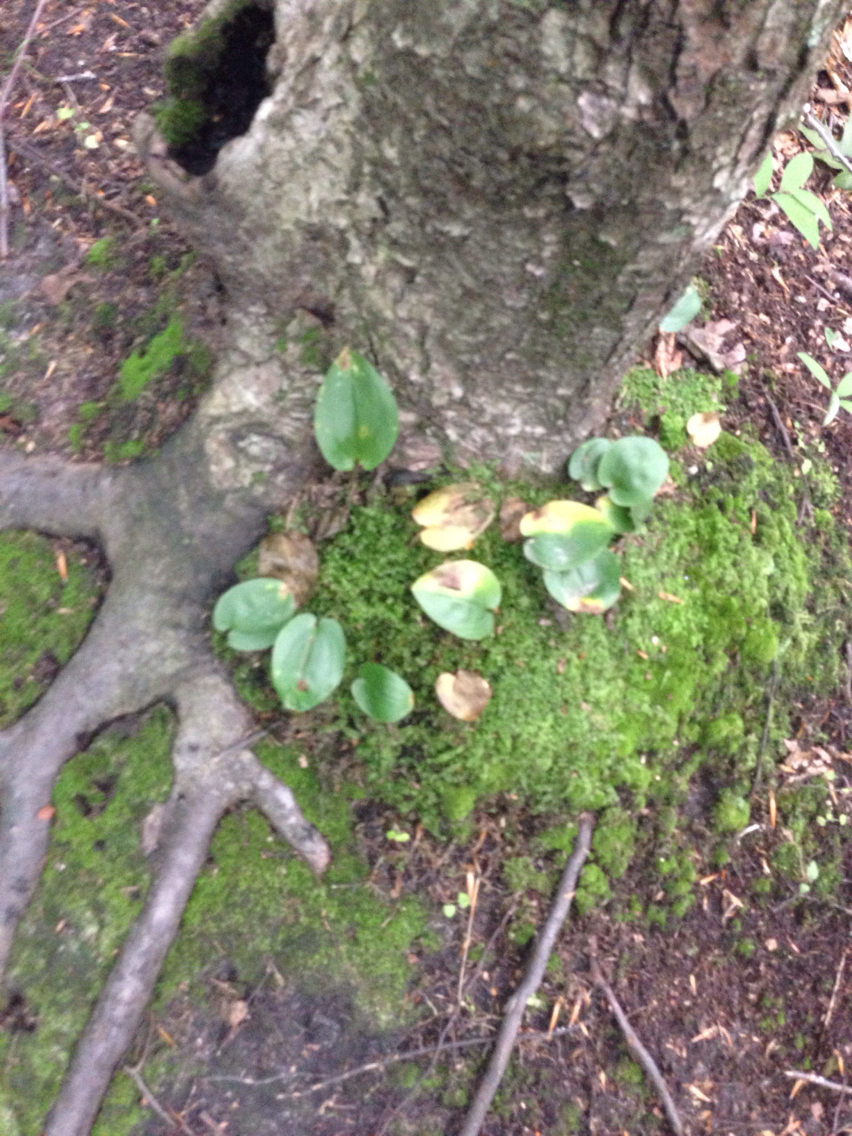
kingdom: Plantae
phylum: Tracheophyta
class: Liliopsida
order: Asparagales
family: Asparagaceae
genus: Maianthemum
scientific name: Maianthemum canadense
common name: False lily-of-the-valley
